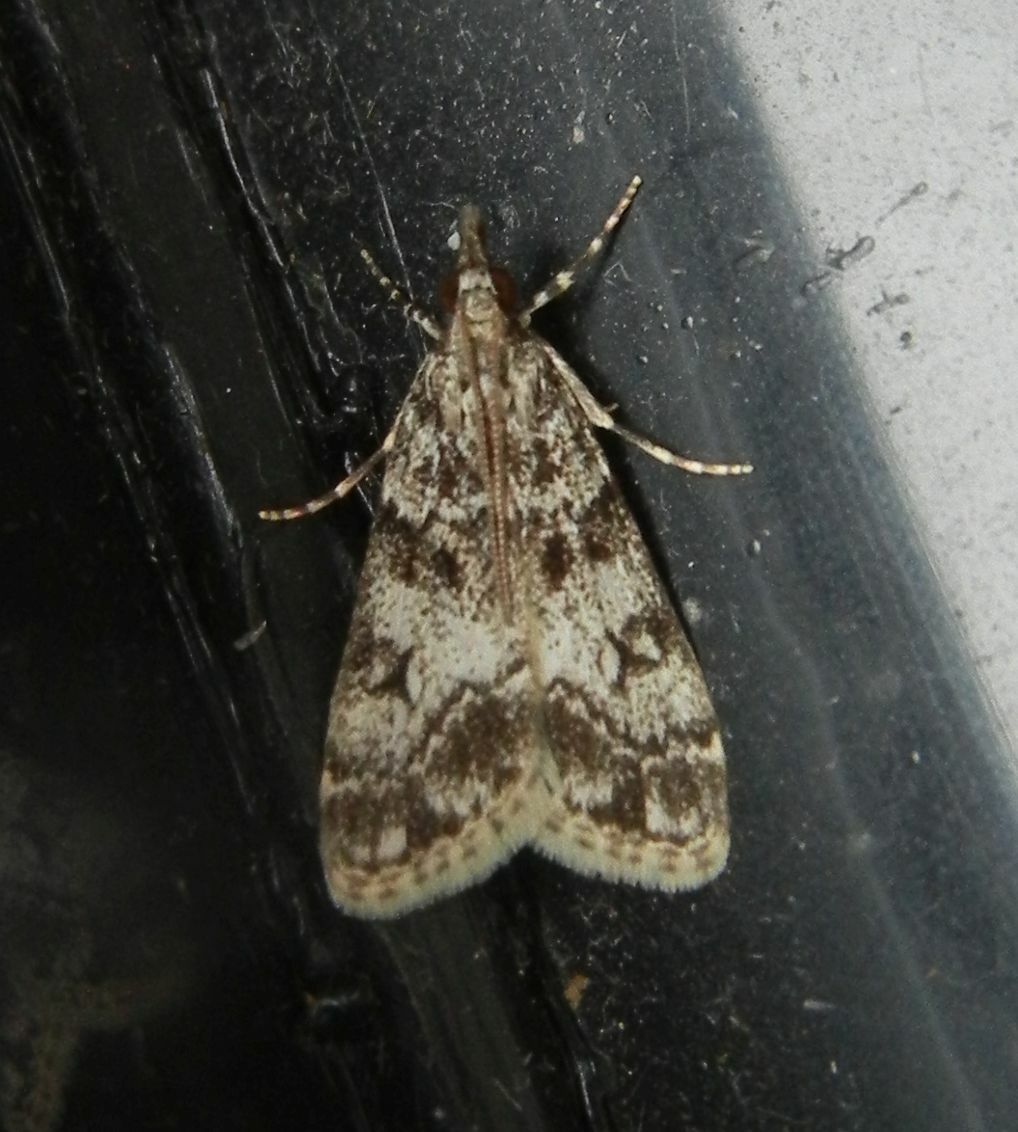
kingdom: Animalia
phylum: Arthropoda
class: Insecta
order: Lepidoptera
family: Crambidae
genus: Eudonia
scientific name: Eudonia lacustrata
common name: Little grey
